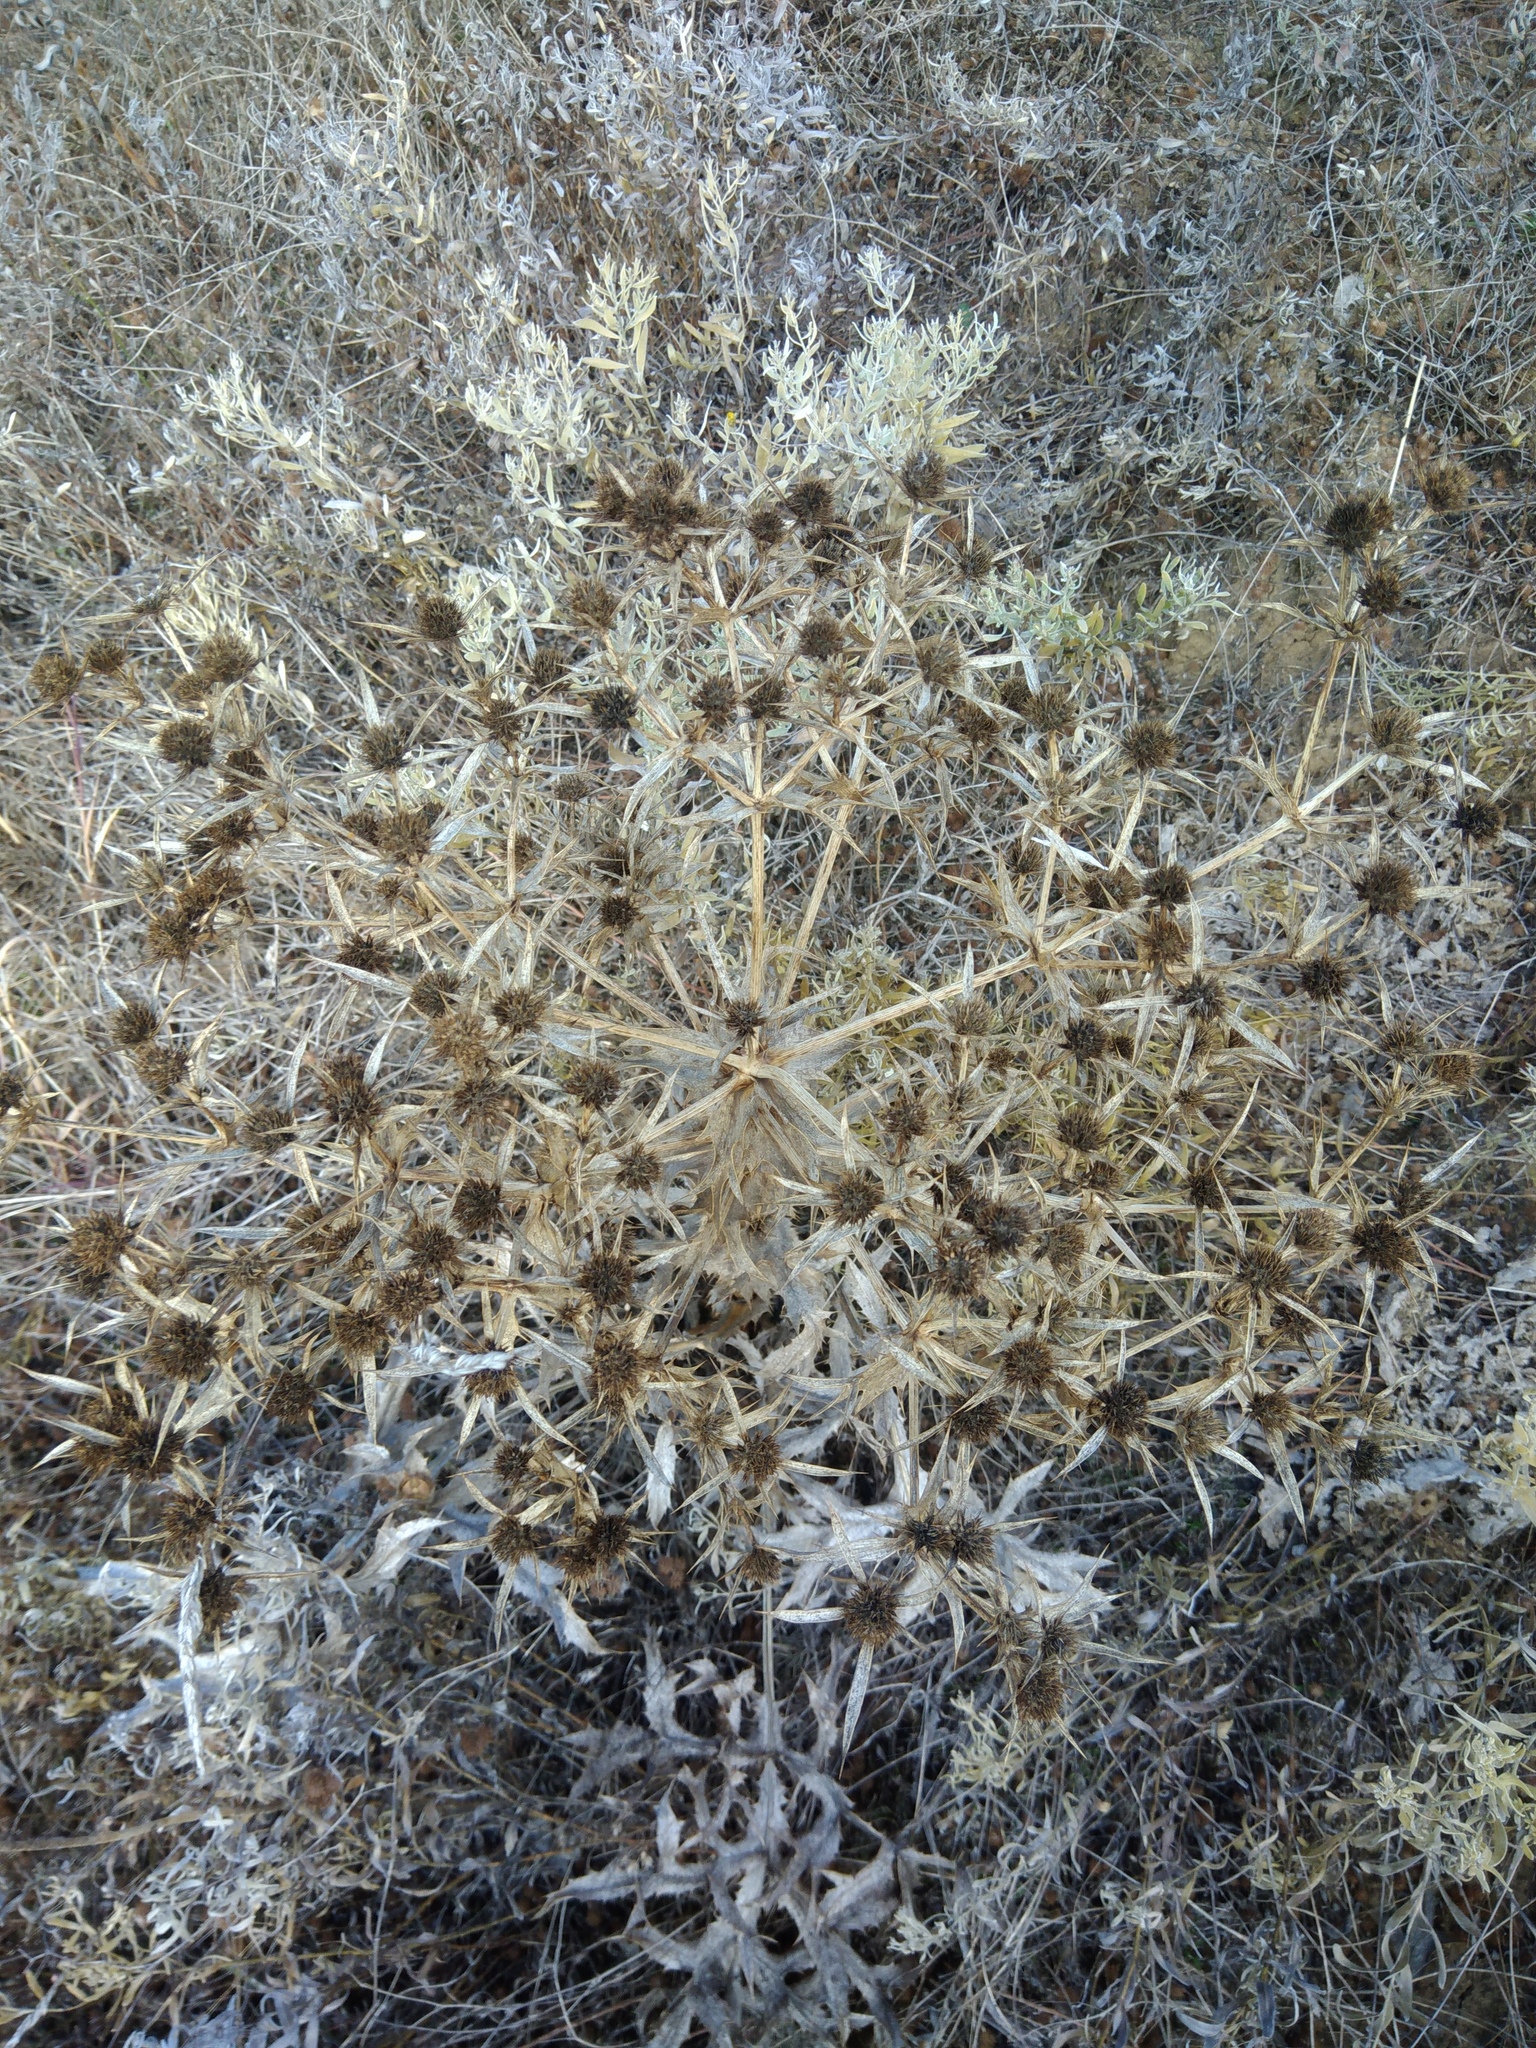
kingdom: Plantae
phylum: Tracheophyta
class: Magnoliopsida
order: Apiales
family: Apiaceae
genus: Eryngium
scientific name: Eryngium campestre
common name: Field eryngo
